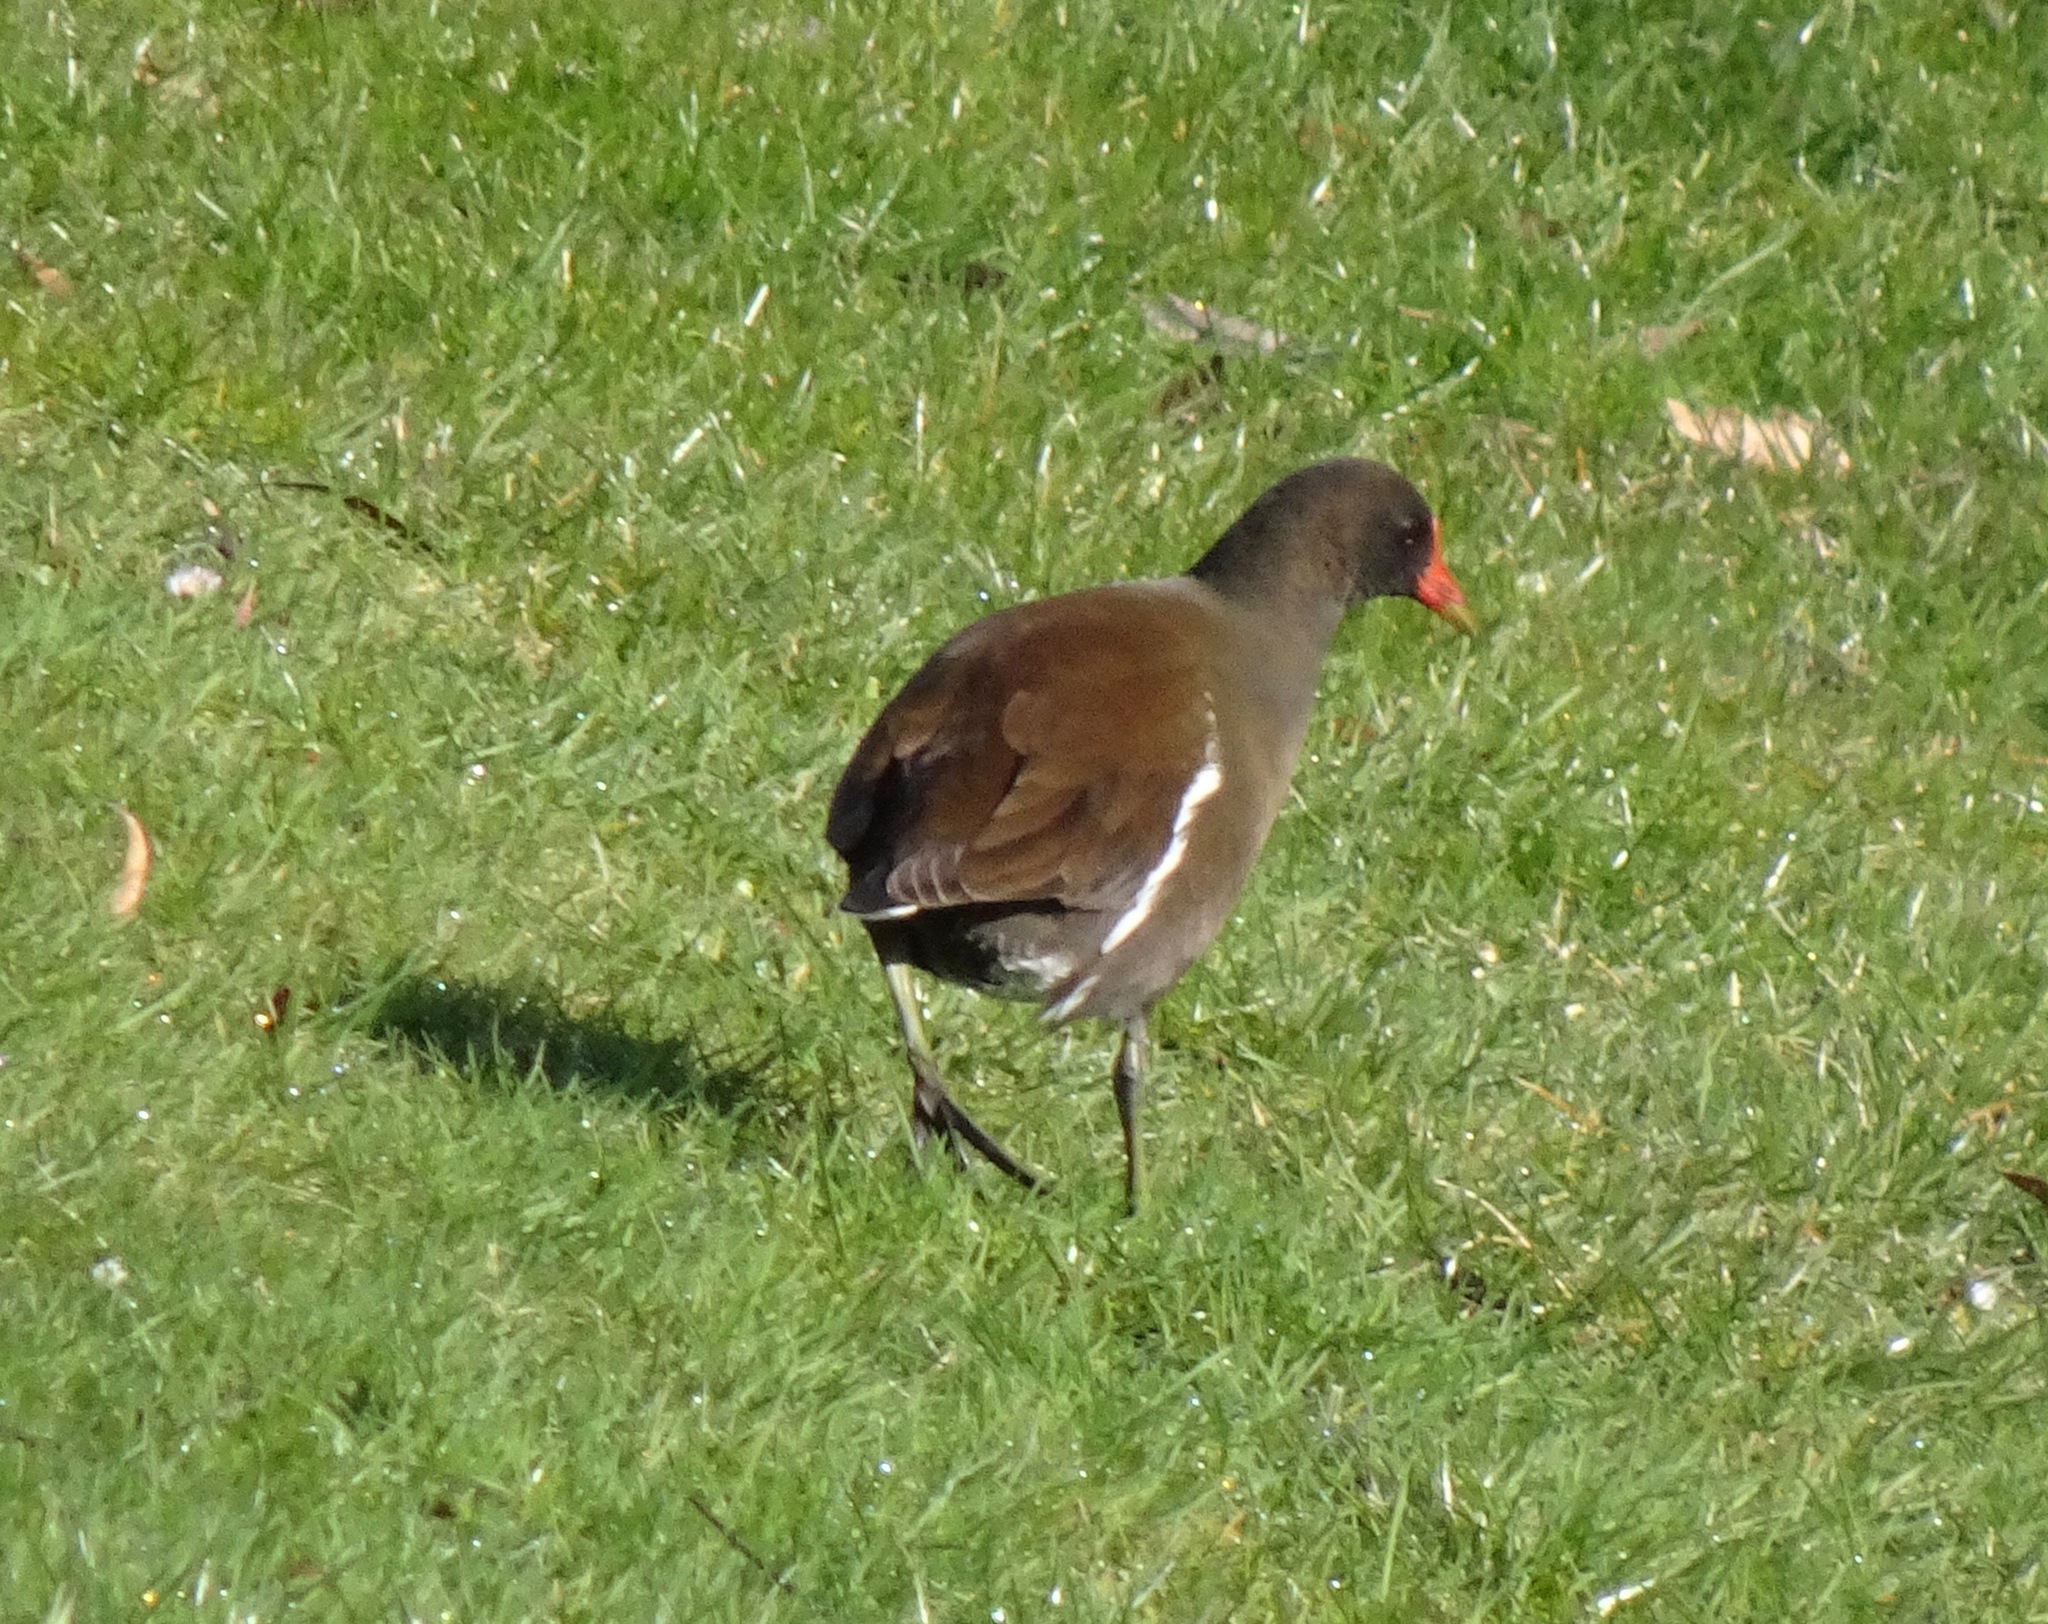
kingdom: Animalia
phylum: Chordata
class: Aves
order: Gruiformes
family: Rallidae
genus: Gallinula
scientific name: Gallinula chloropus
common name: Common moorhen
